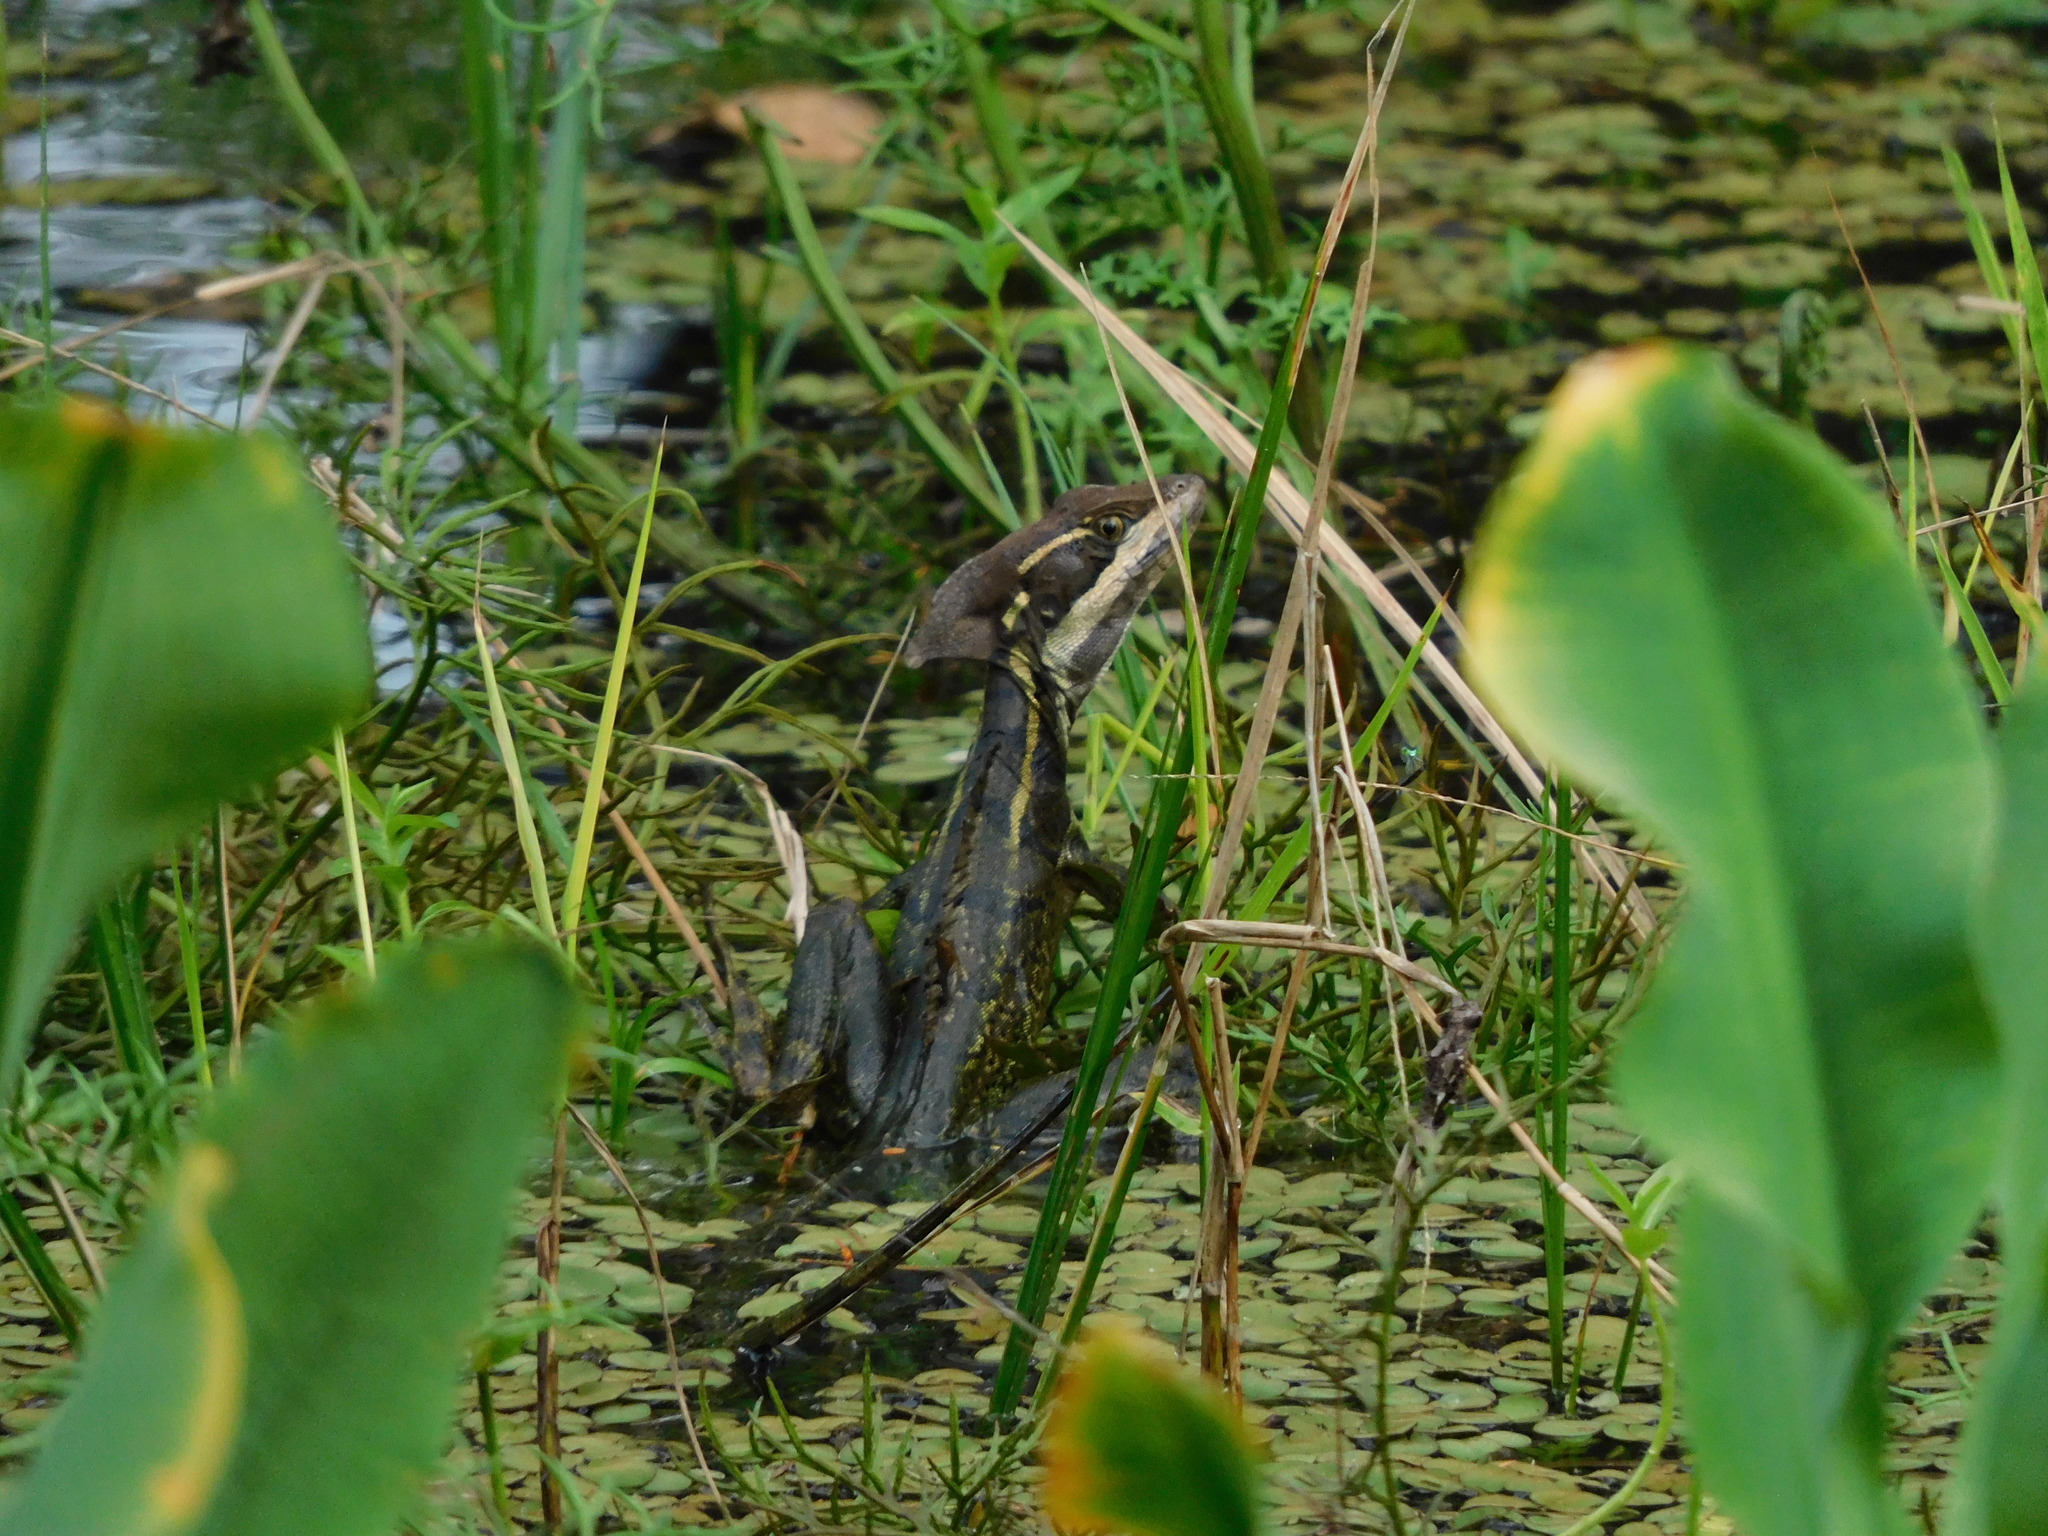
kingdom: Animalia
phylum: Chordata
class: Squamata
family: Corytophanidae
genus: Basiliscus
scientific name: Basiliscus basiliscus
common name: Common basilisk
